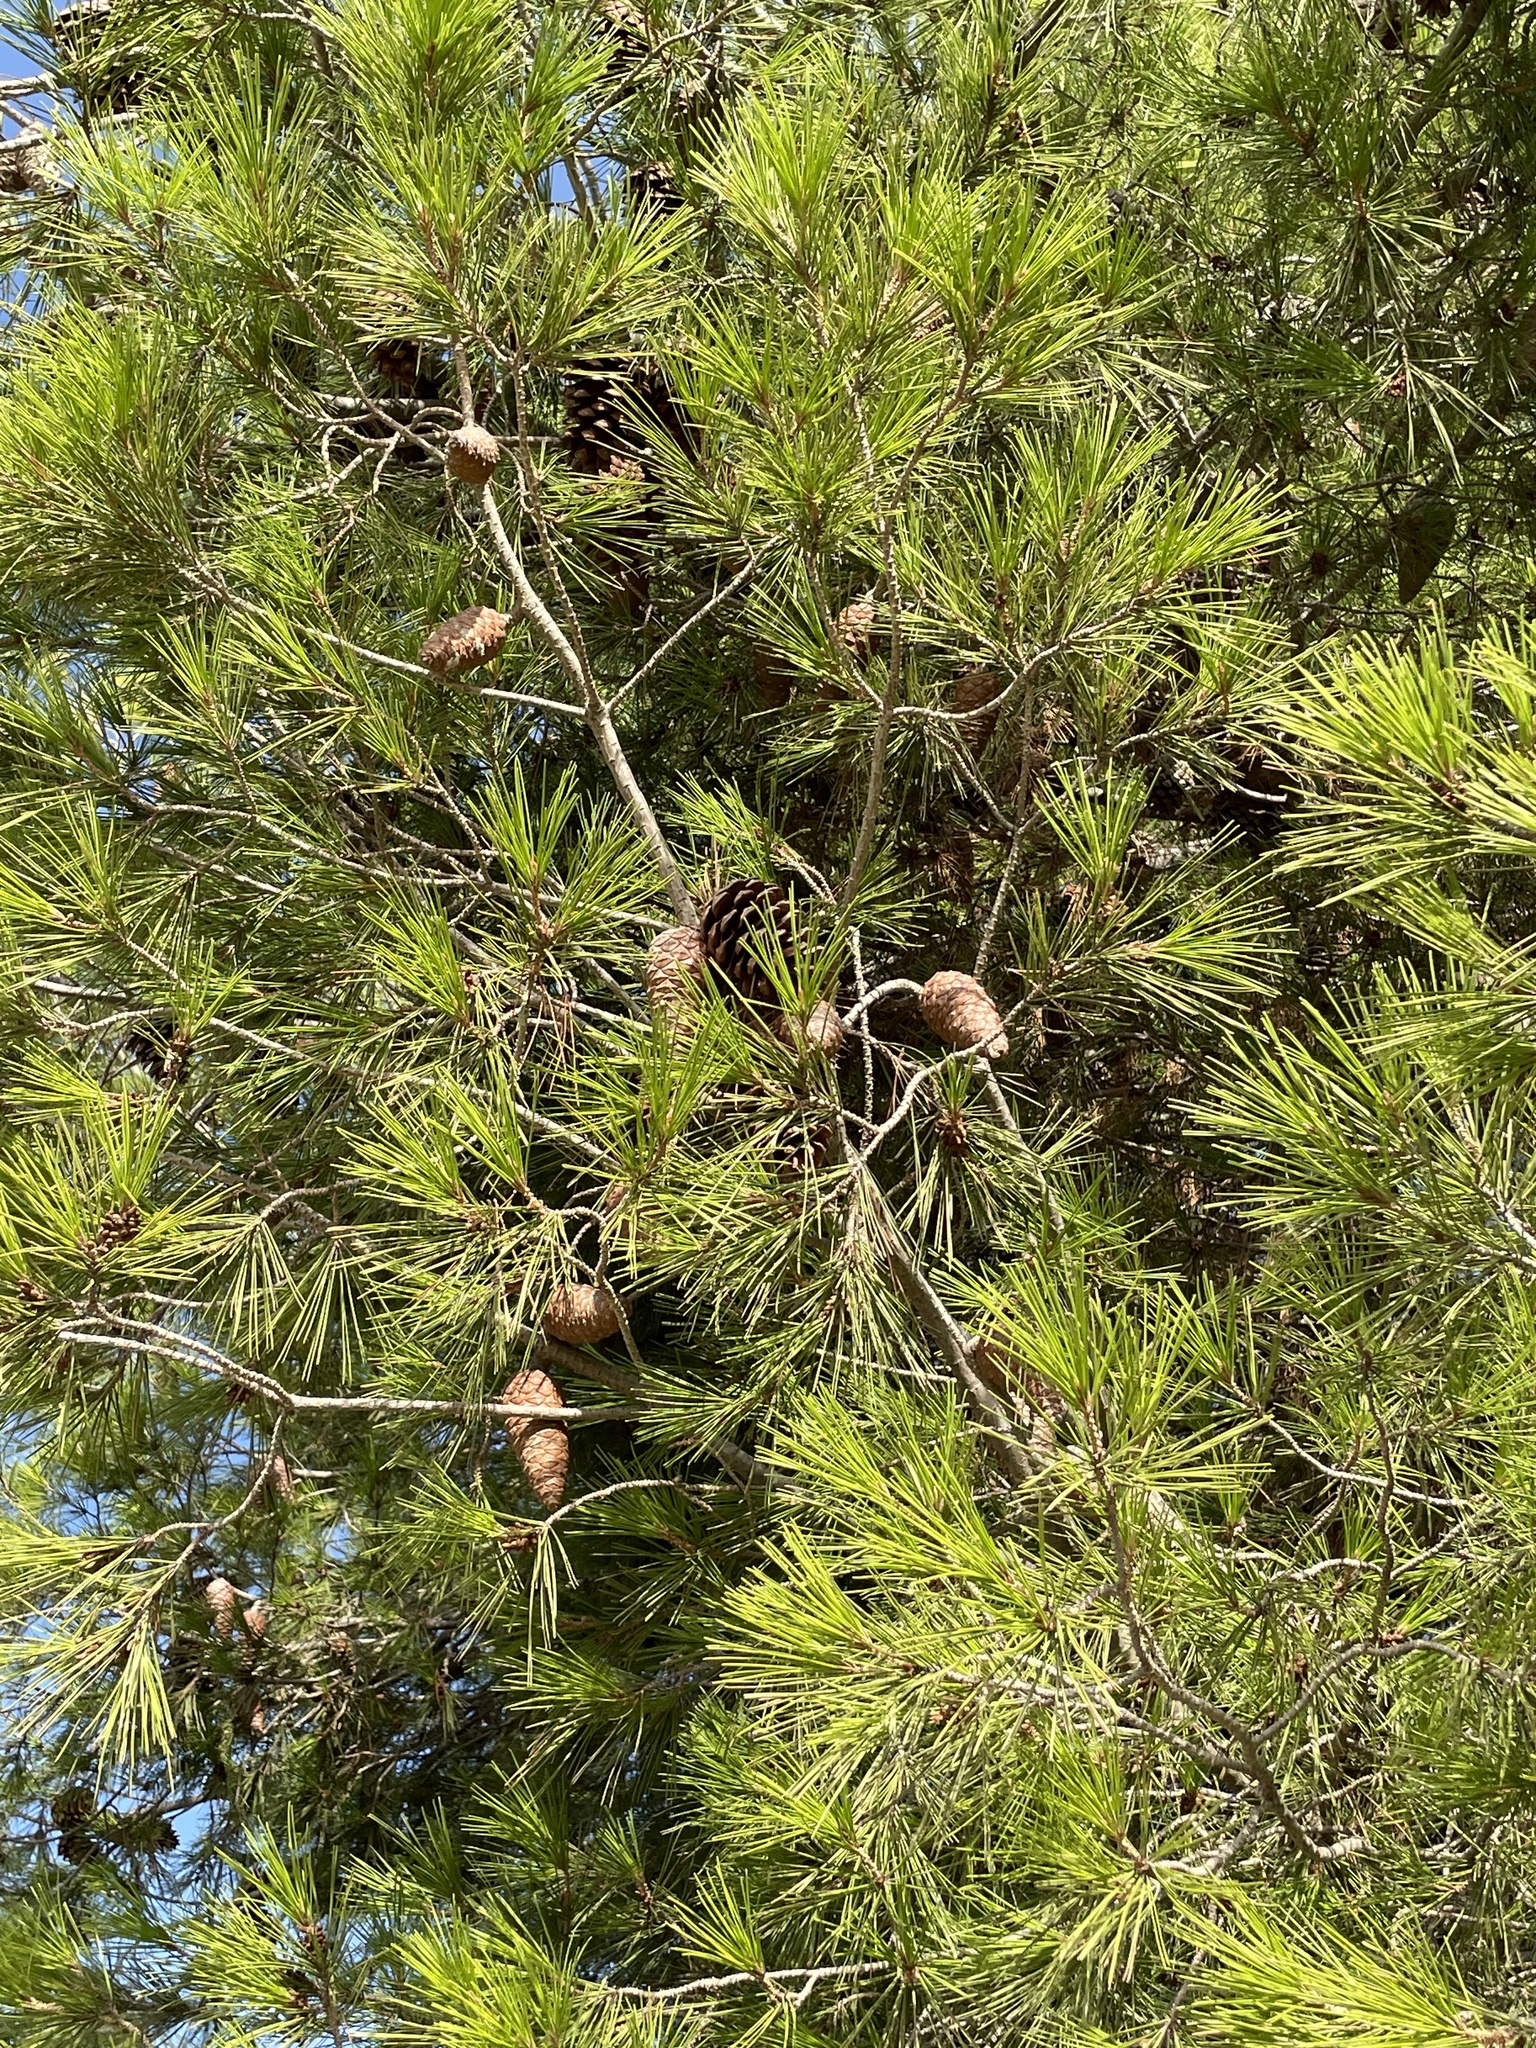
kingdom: Plantae
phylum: Tracheophyta
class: Pinopsida
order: Pinales
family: Pinaceae
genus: Pinus
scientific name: Pinus halepensis
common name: Aleppo pine
